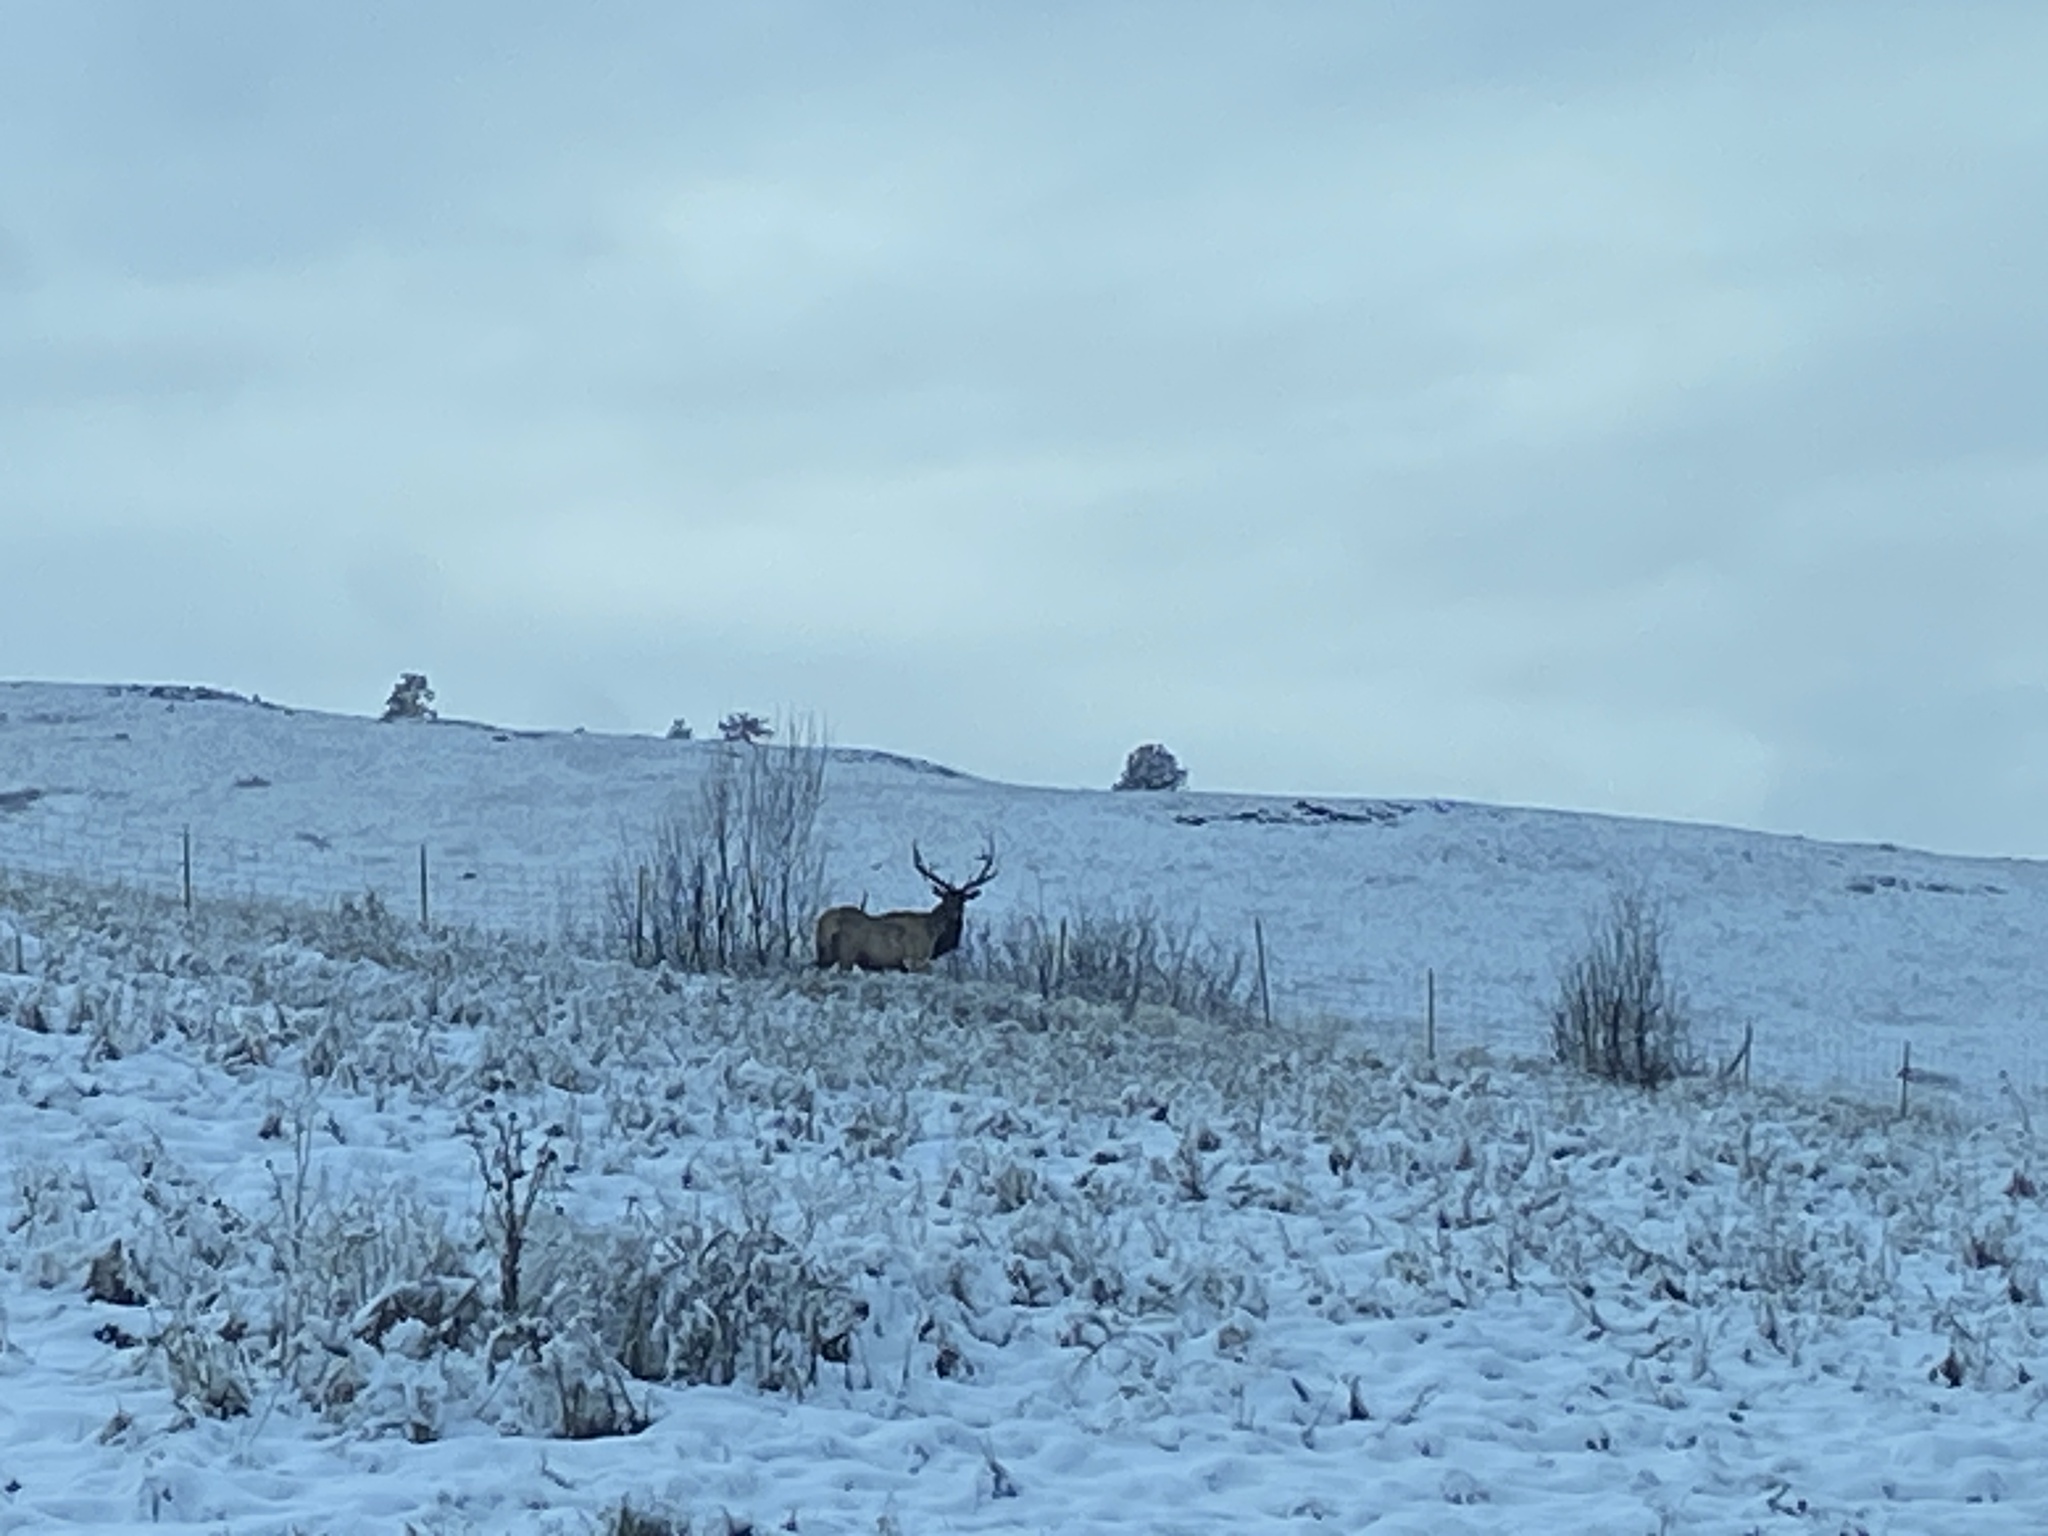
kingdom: Animalia
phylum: Chordata
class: Mammalia
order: Artiodactyla
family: Cervidae
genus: Cervus
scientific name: Cervus elaphus
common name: Red deer
